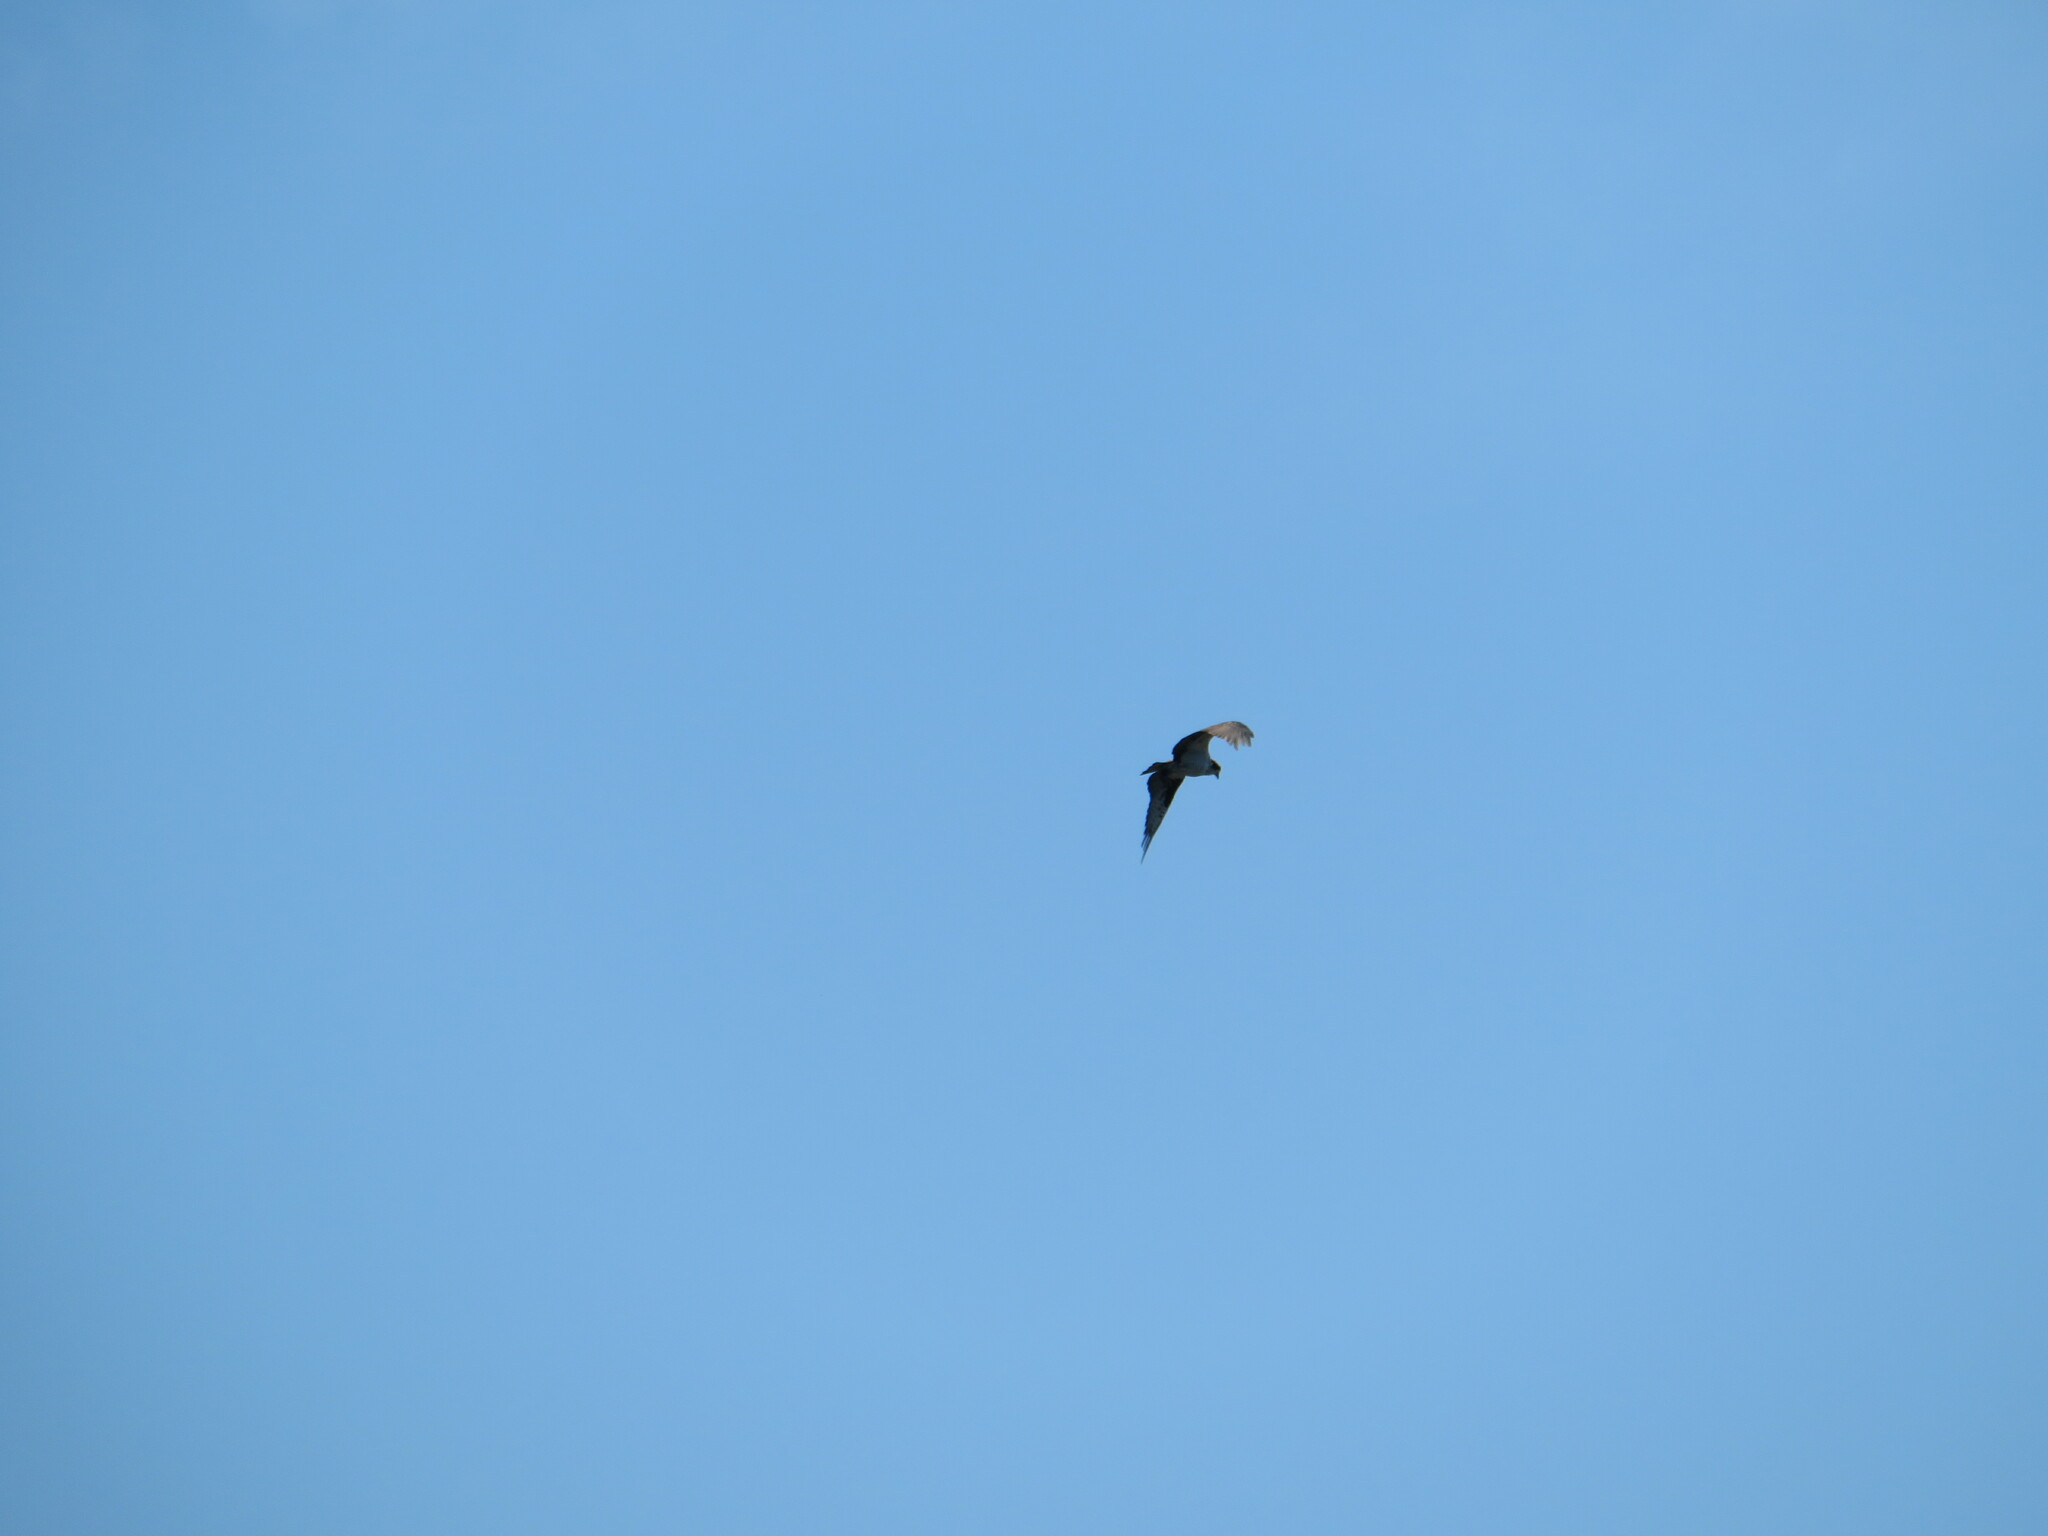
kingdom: Animalia
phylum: Chordata
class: Aves
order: Accipitriformes
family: Pandionidae
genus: Pandion
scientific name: Pandion haliaetus
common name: Osprey
